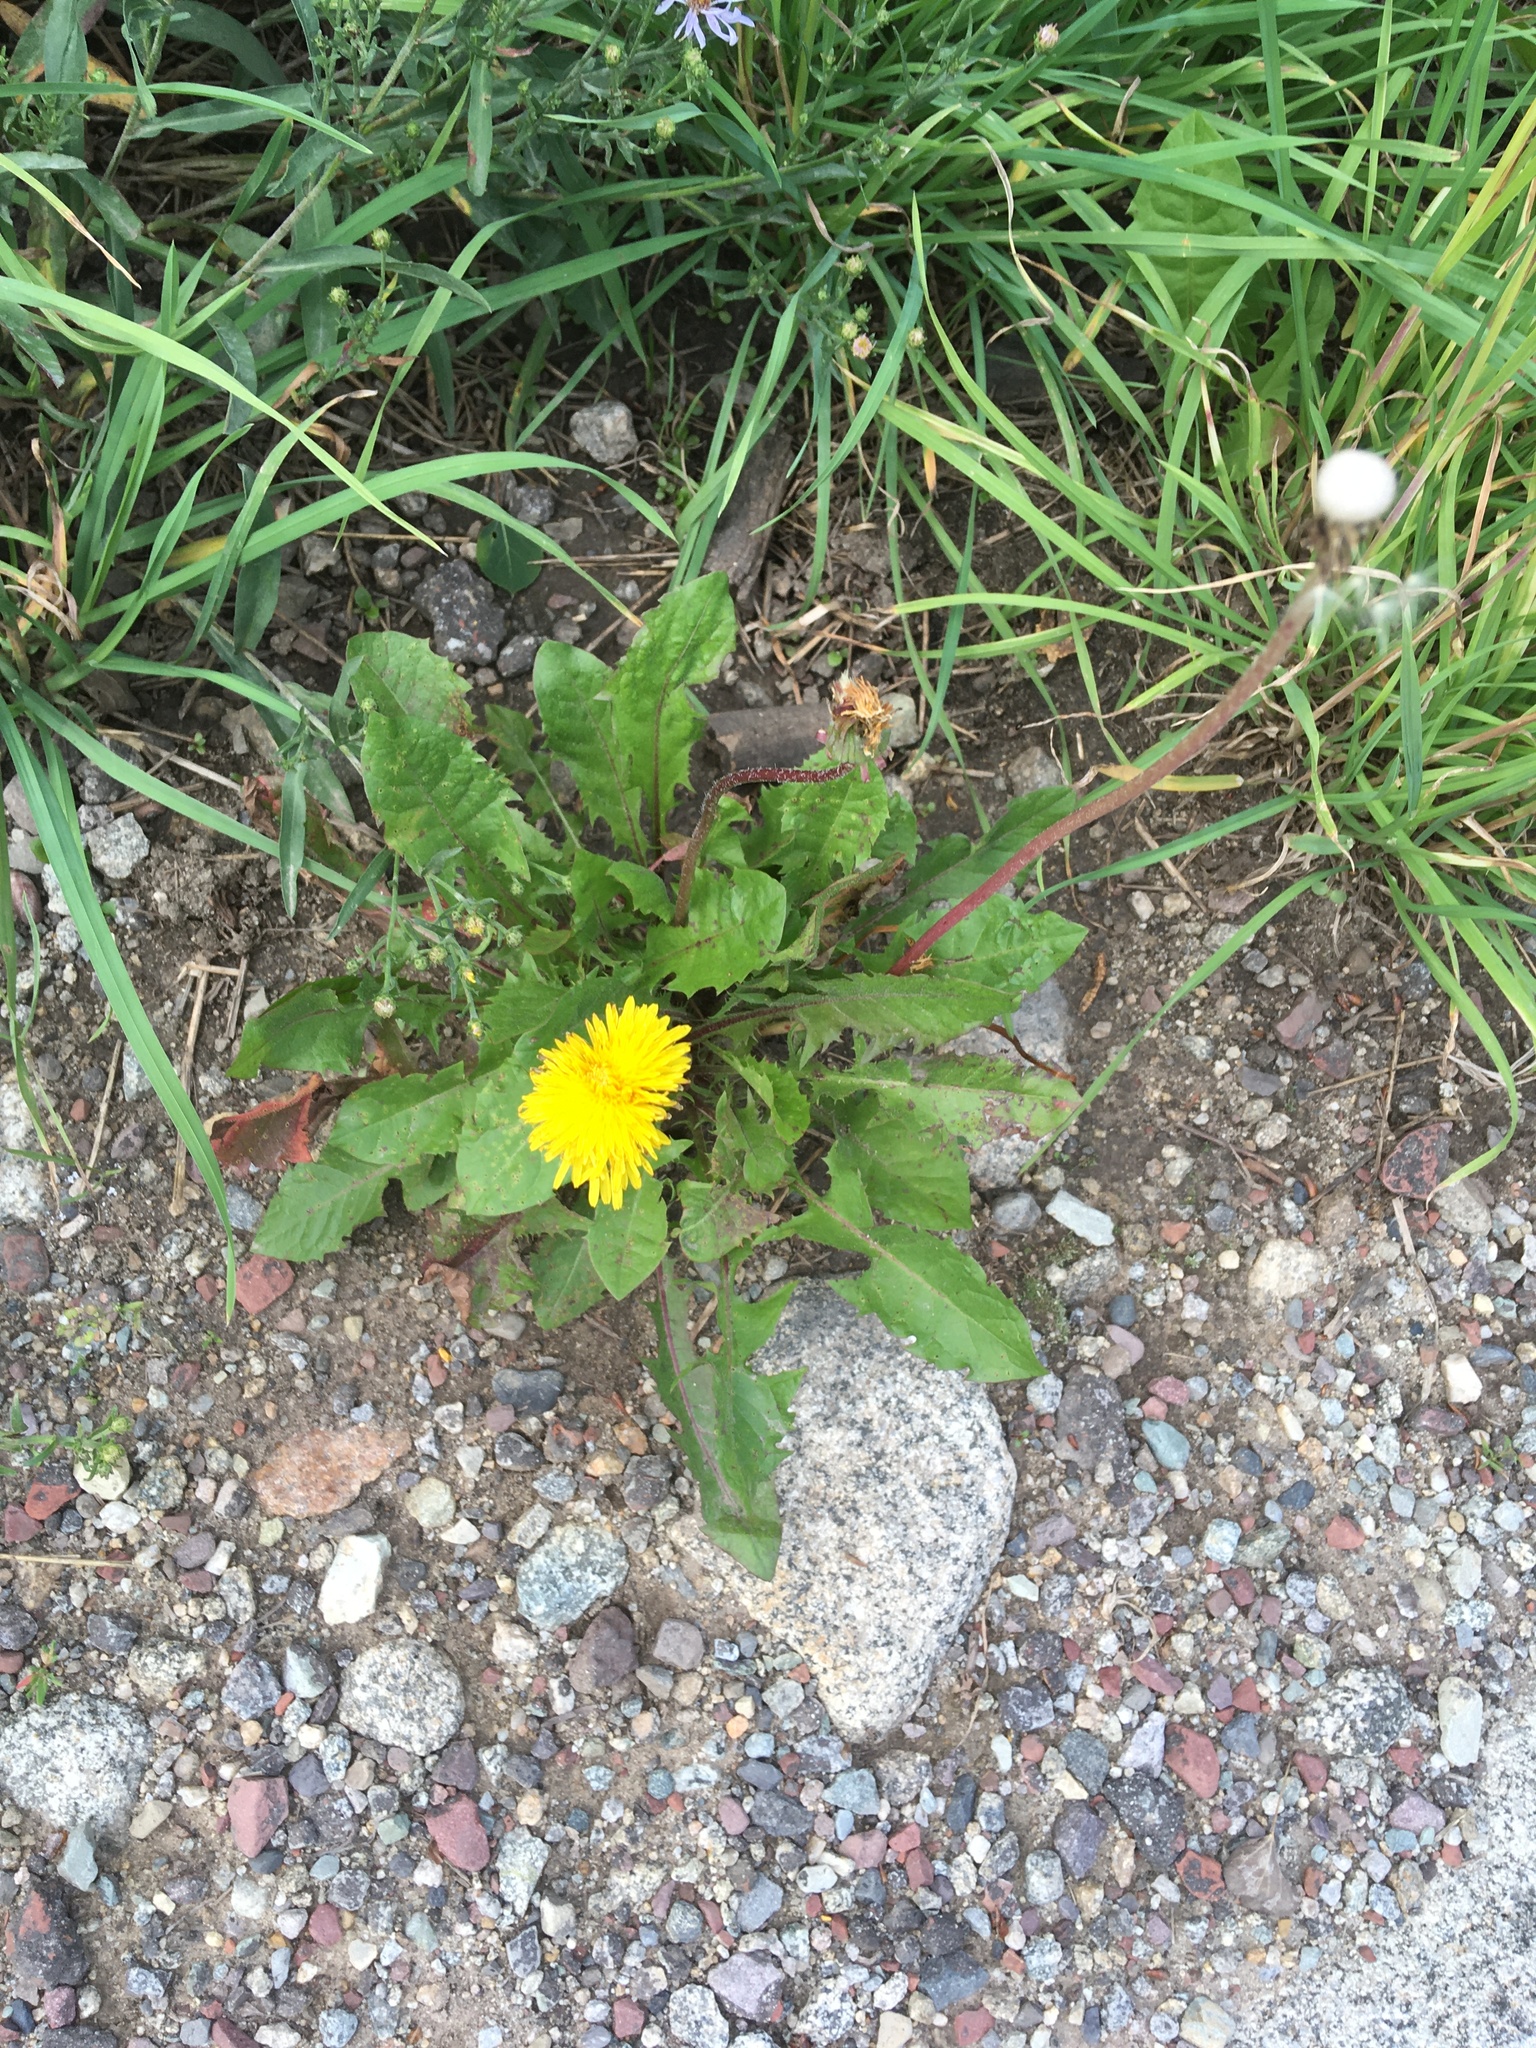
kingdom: Plantae
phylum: Tracheophyta
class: Magnoliopsida
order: Asterales
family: Asteraceae
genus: Taraxacum
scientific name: Taraxacum officinale
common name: Common dandelion
